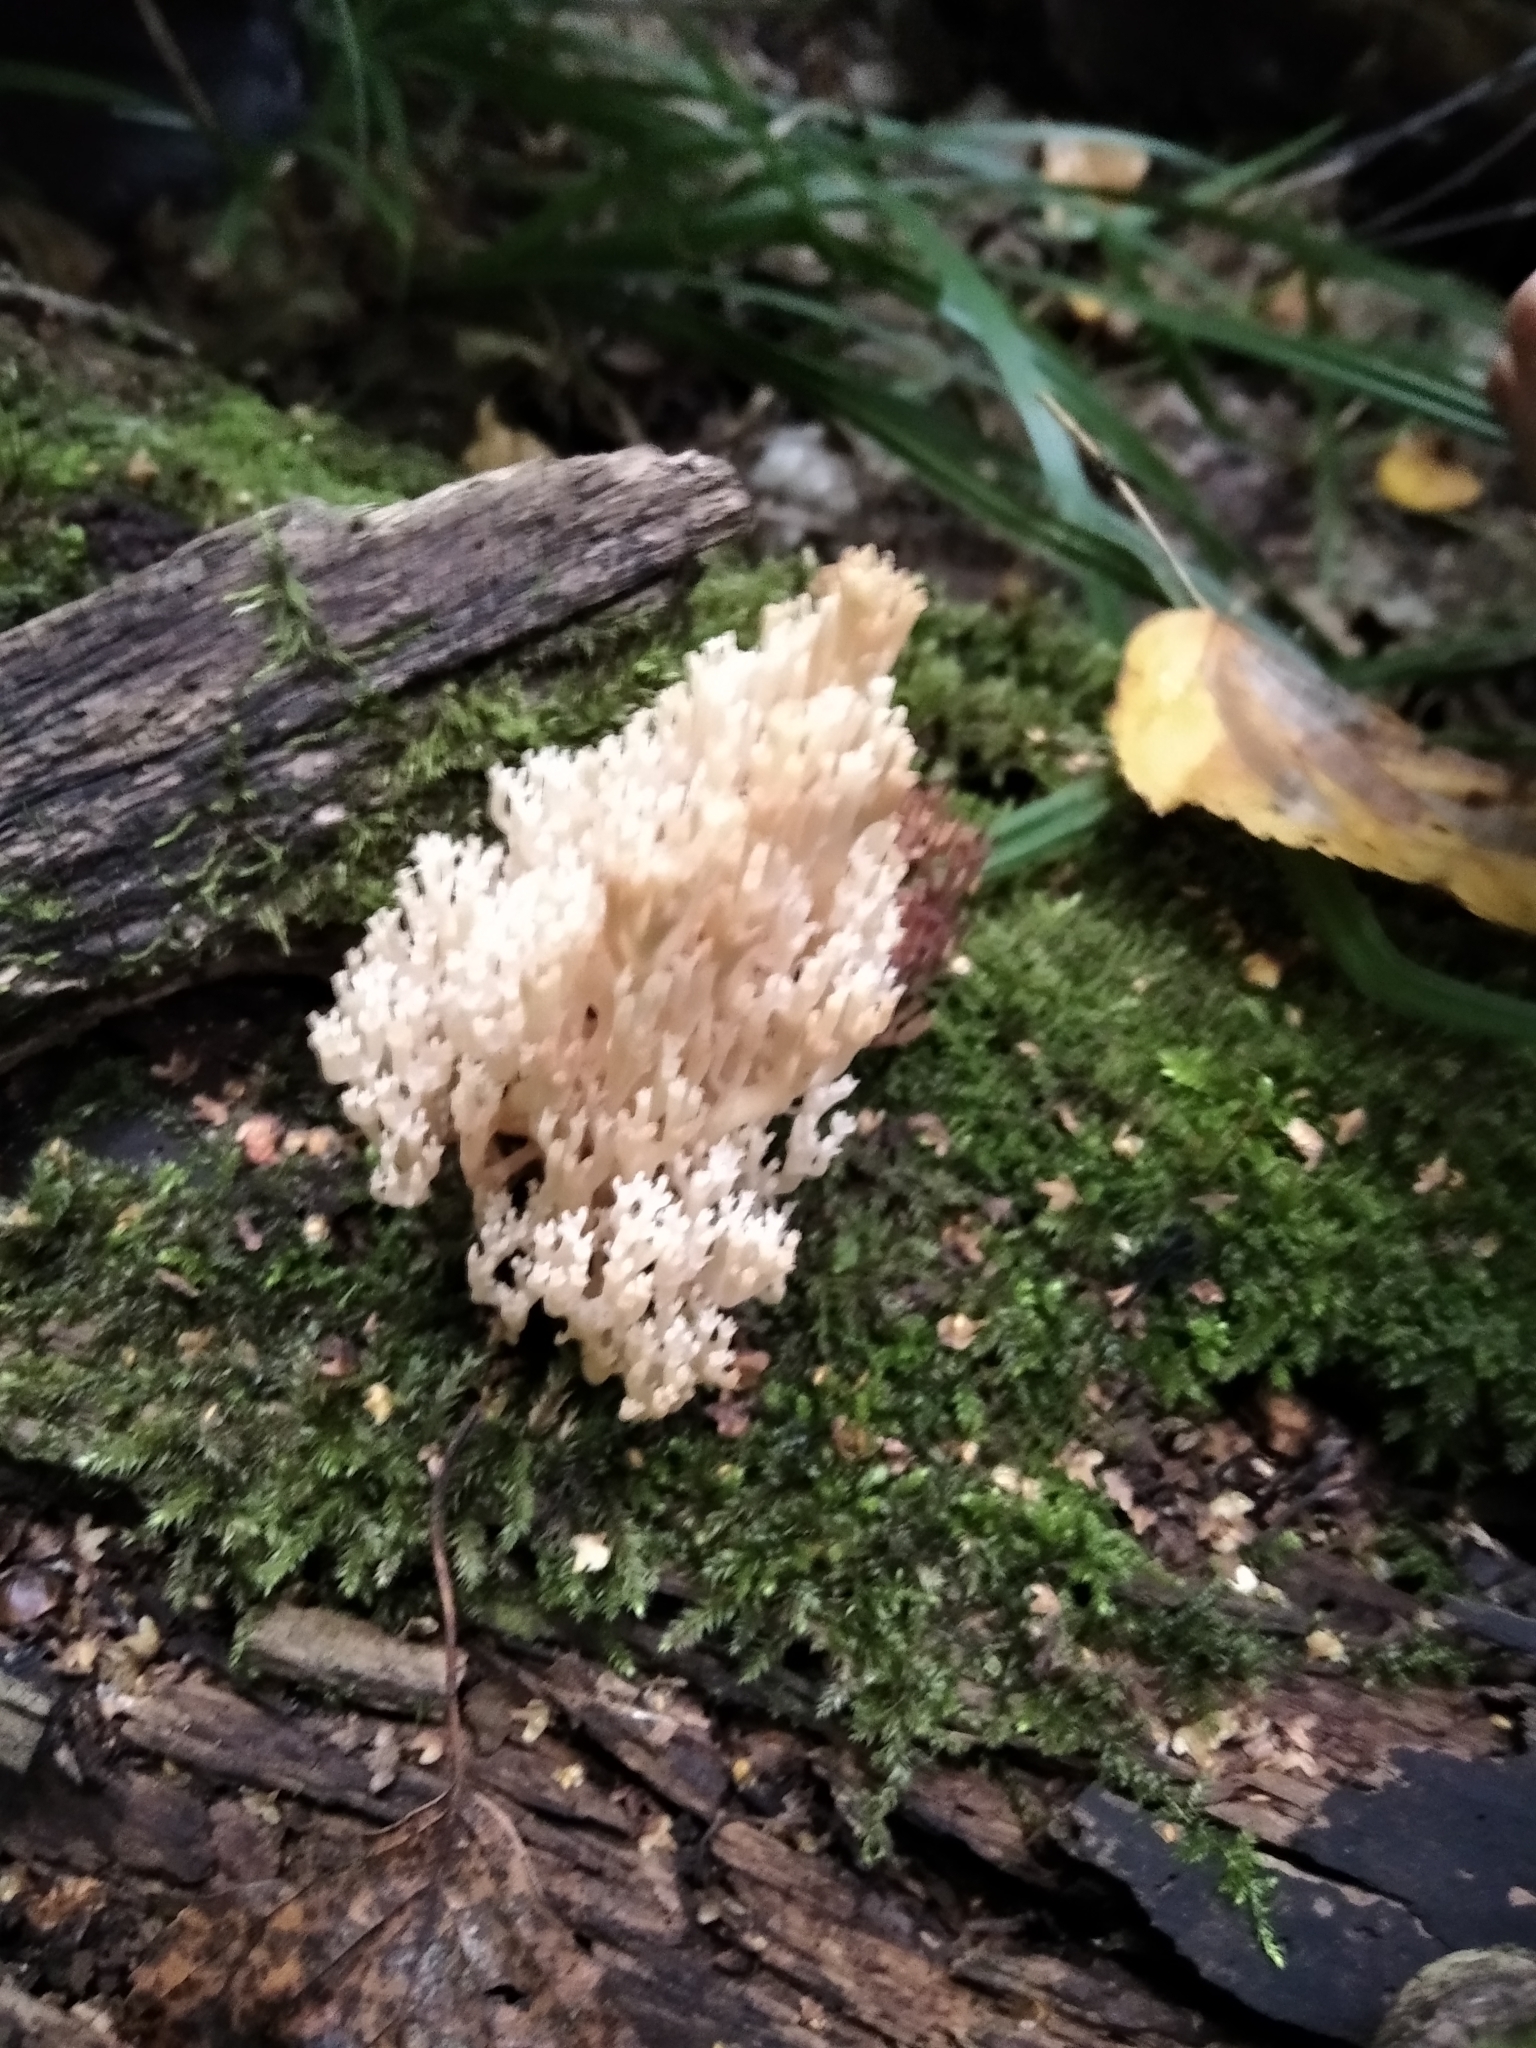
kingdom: Fungi
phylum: Basidiomycota
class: Agaricomycetes
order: Russulales
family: Auriscalpiaceae
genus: Artomyces
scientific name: Artomyces pyxidatus
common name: Crown-tipped coral fungus
